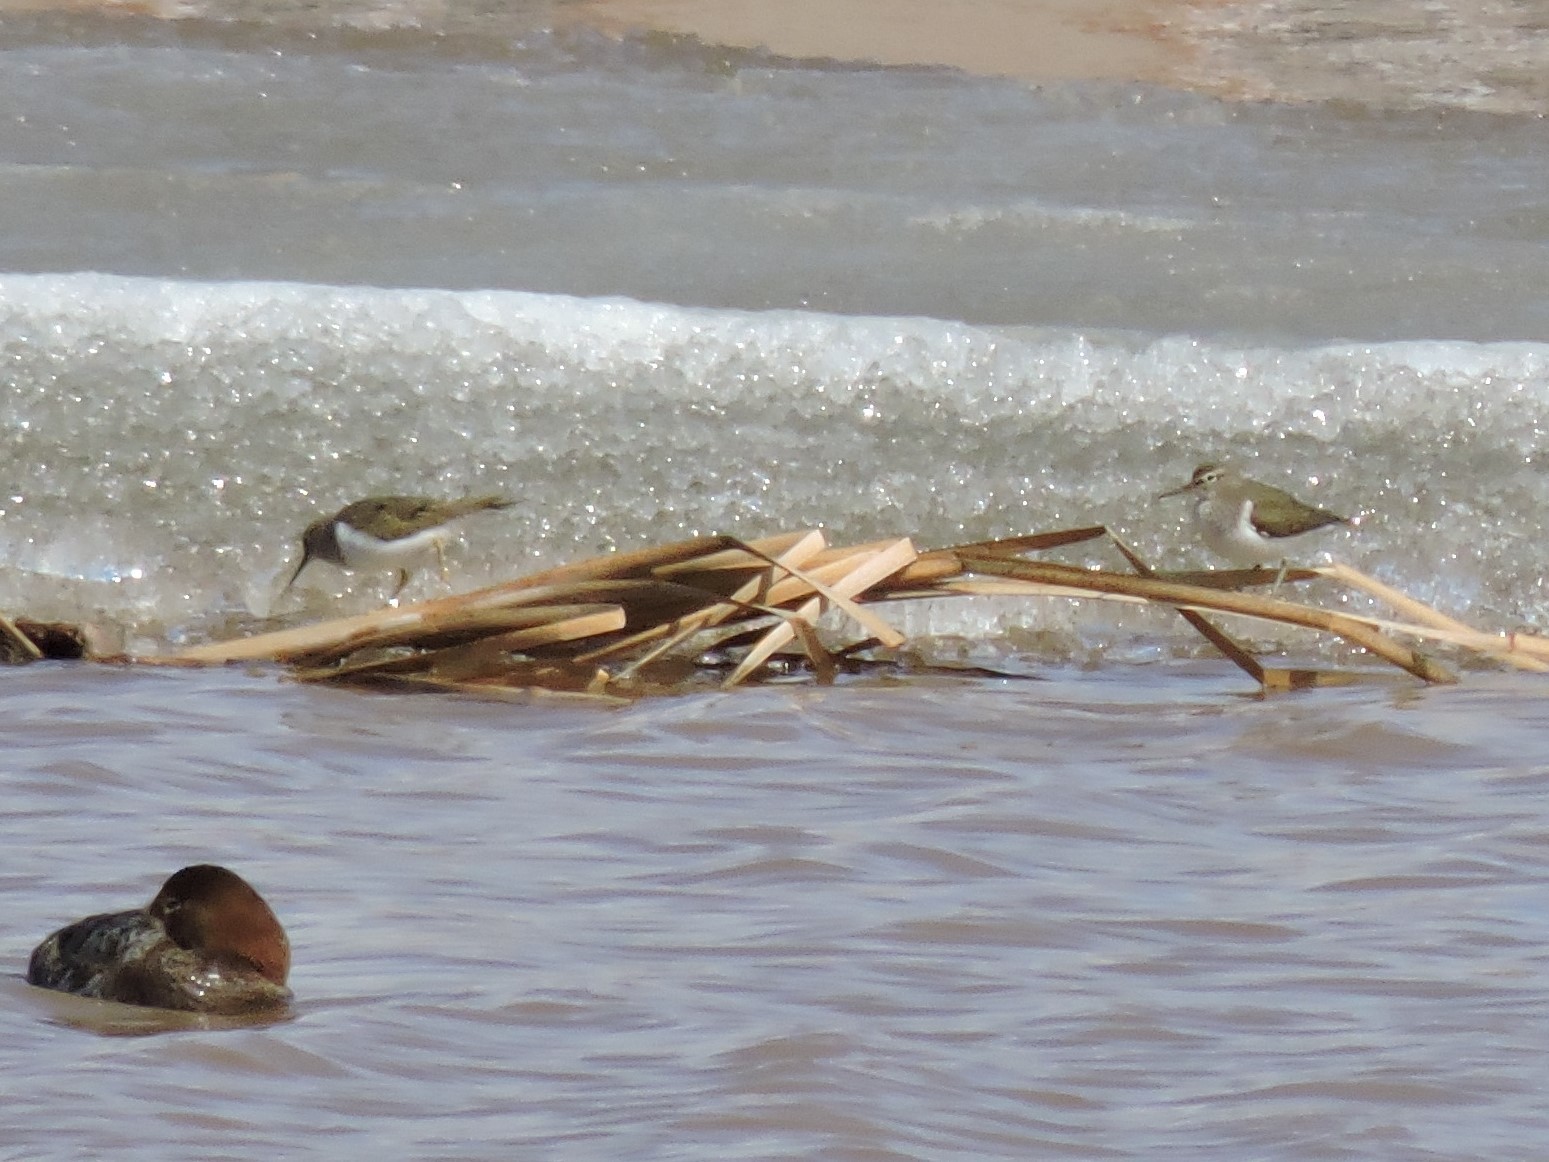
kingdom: Animalia
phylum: Chordata
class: Aves
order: Charadriiformes
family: Scolopacidae
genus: Actitis
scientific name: Actitis hypoleucos
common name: Common sandpiper
